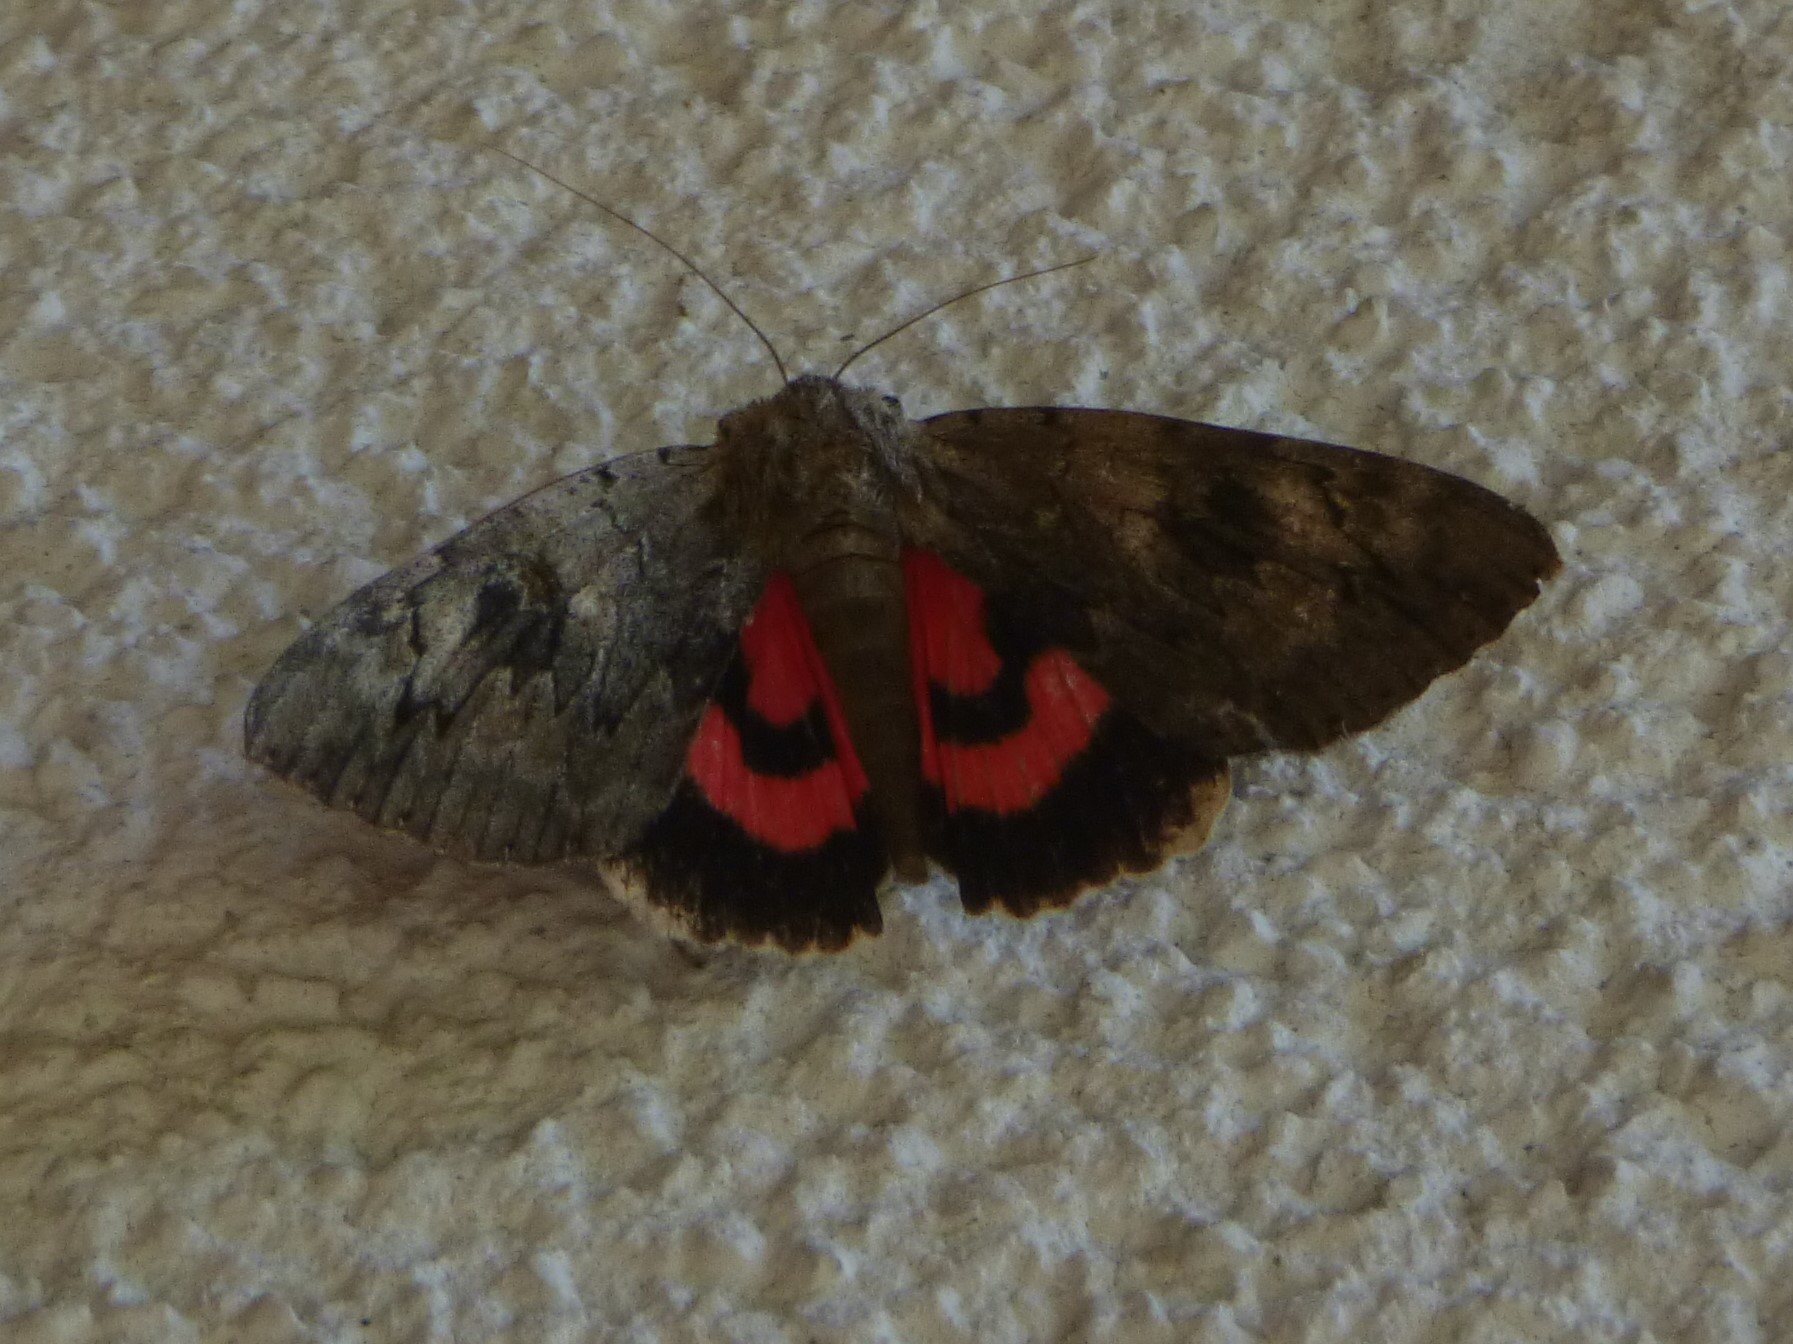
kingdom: Animalia
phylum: Arthropoda
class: Insecta
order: Lepidoptera
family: Erebidae
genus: Catocala
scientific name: Catocala electa
